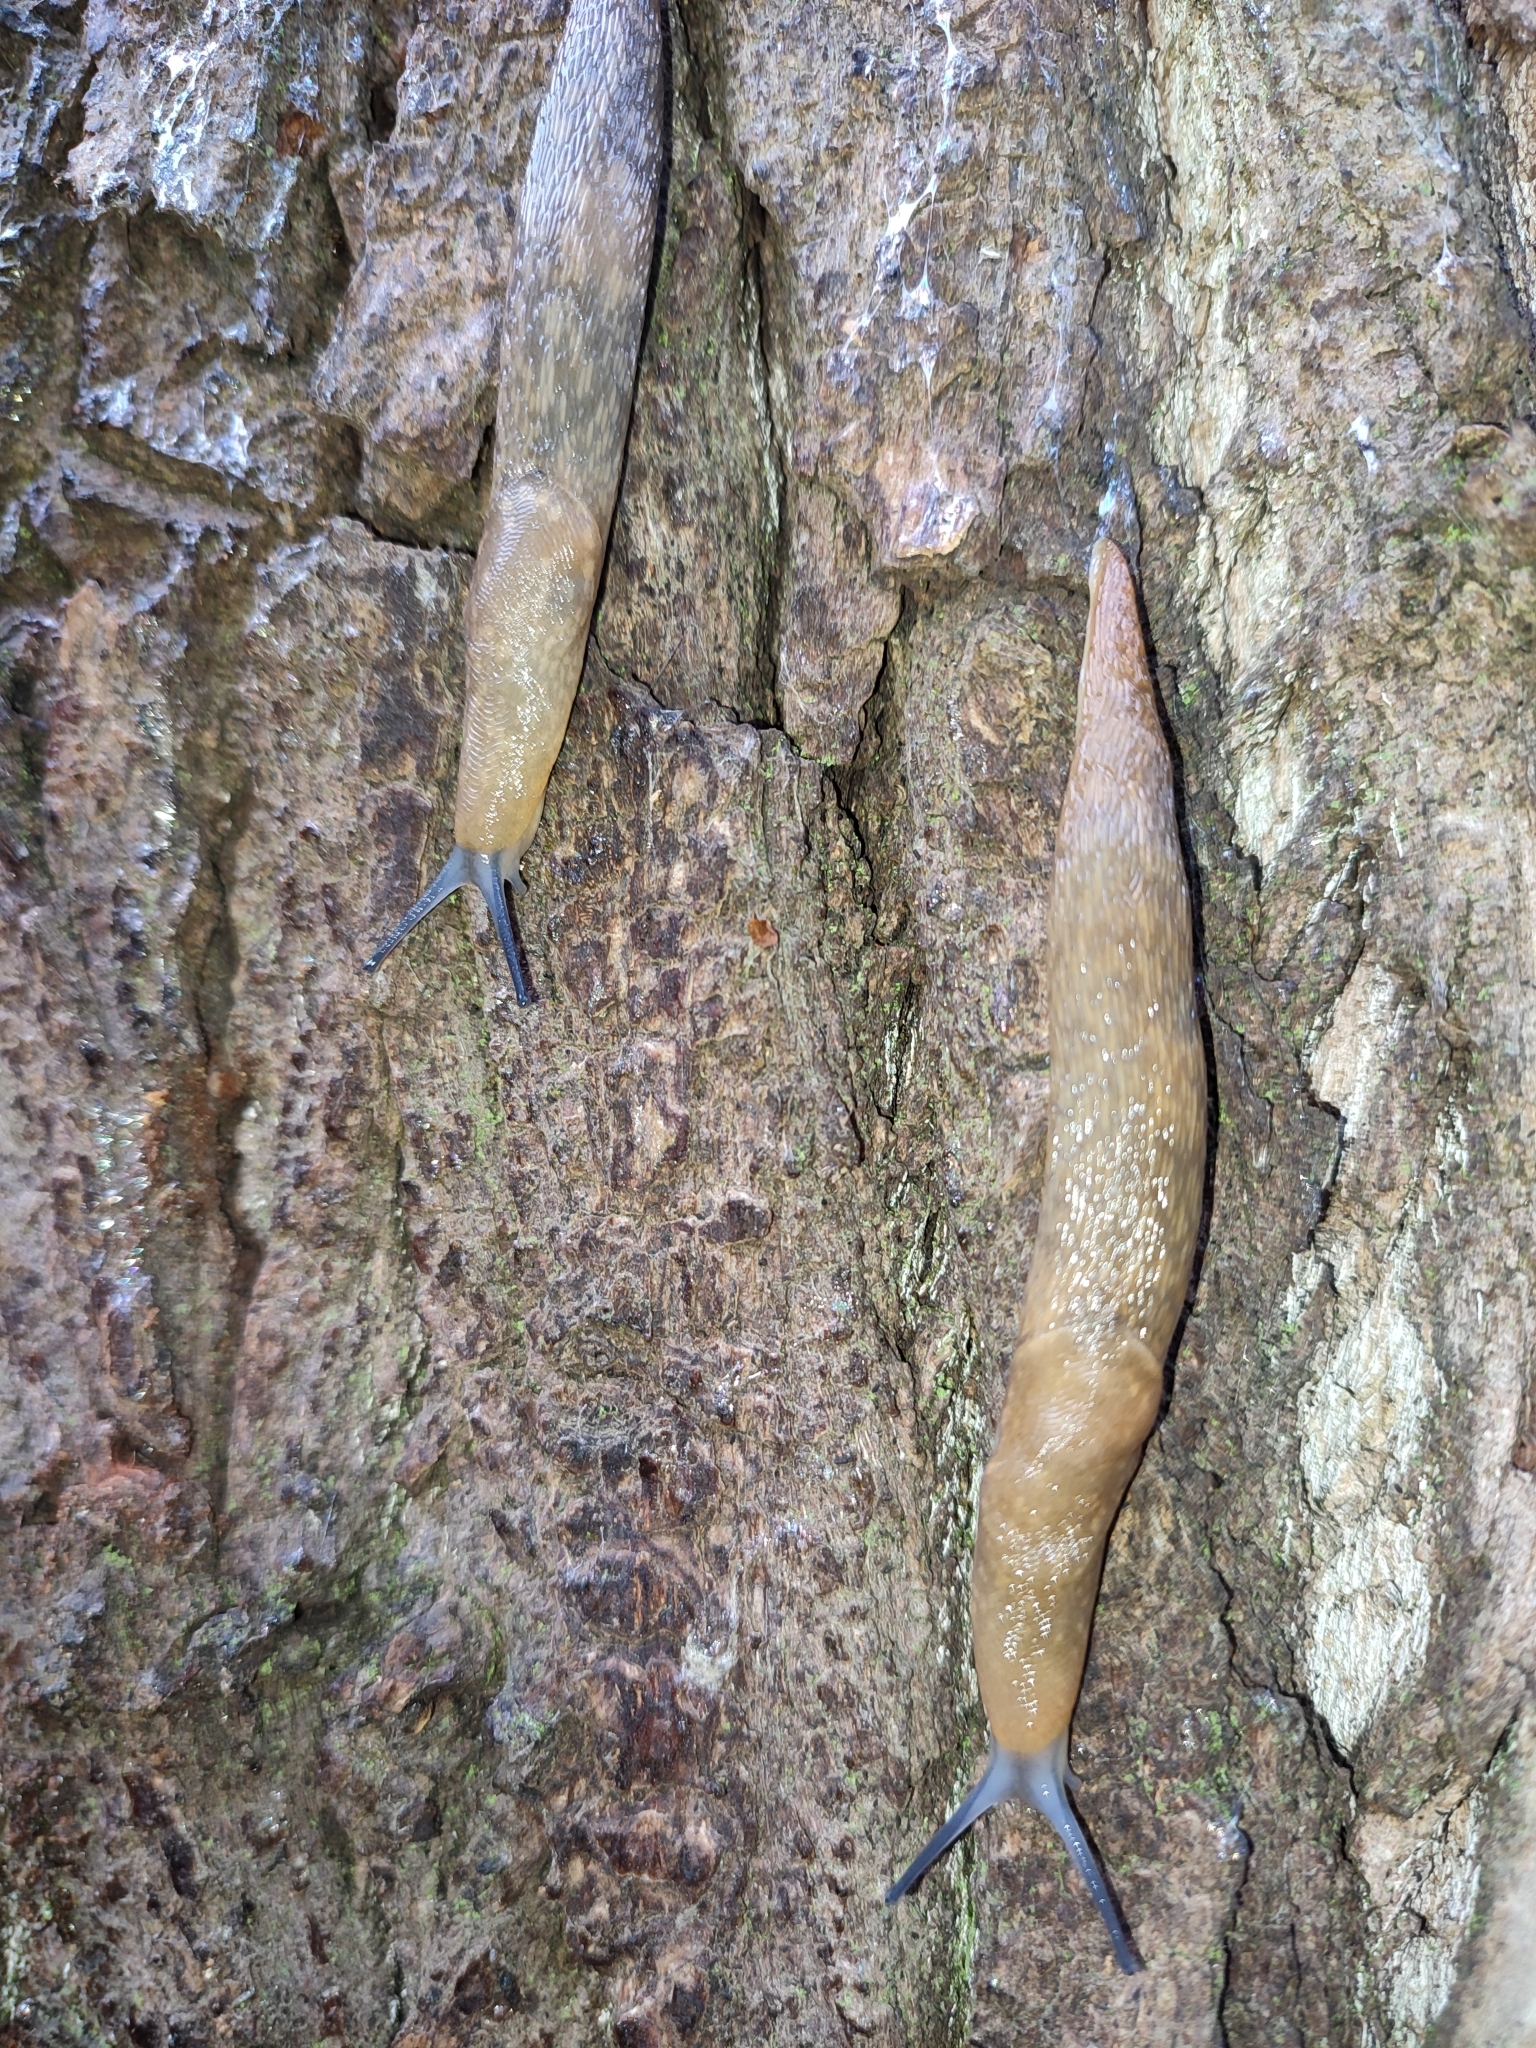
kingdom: Animalia
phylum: Mollusca
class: Gastropoda
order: Stylommatophora
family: Limacidae
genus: Limacus
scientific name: Limacus flavus
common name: Yellow gardenslug
